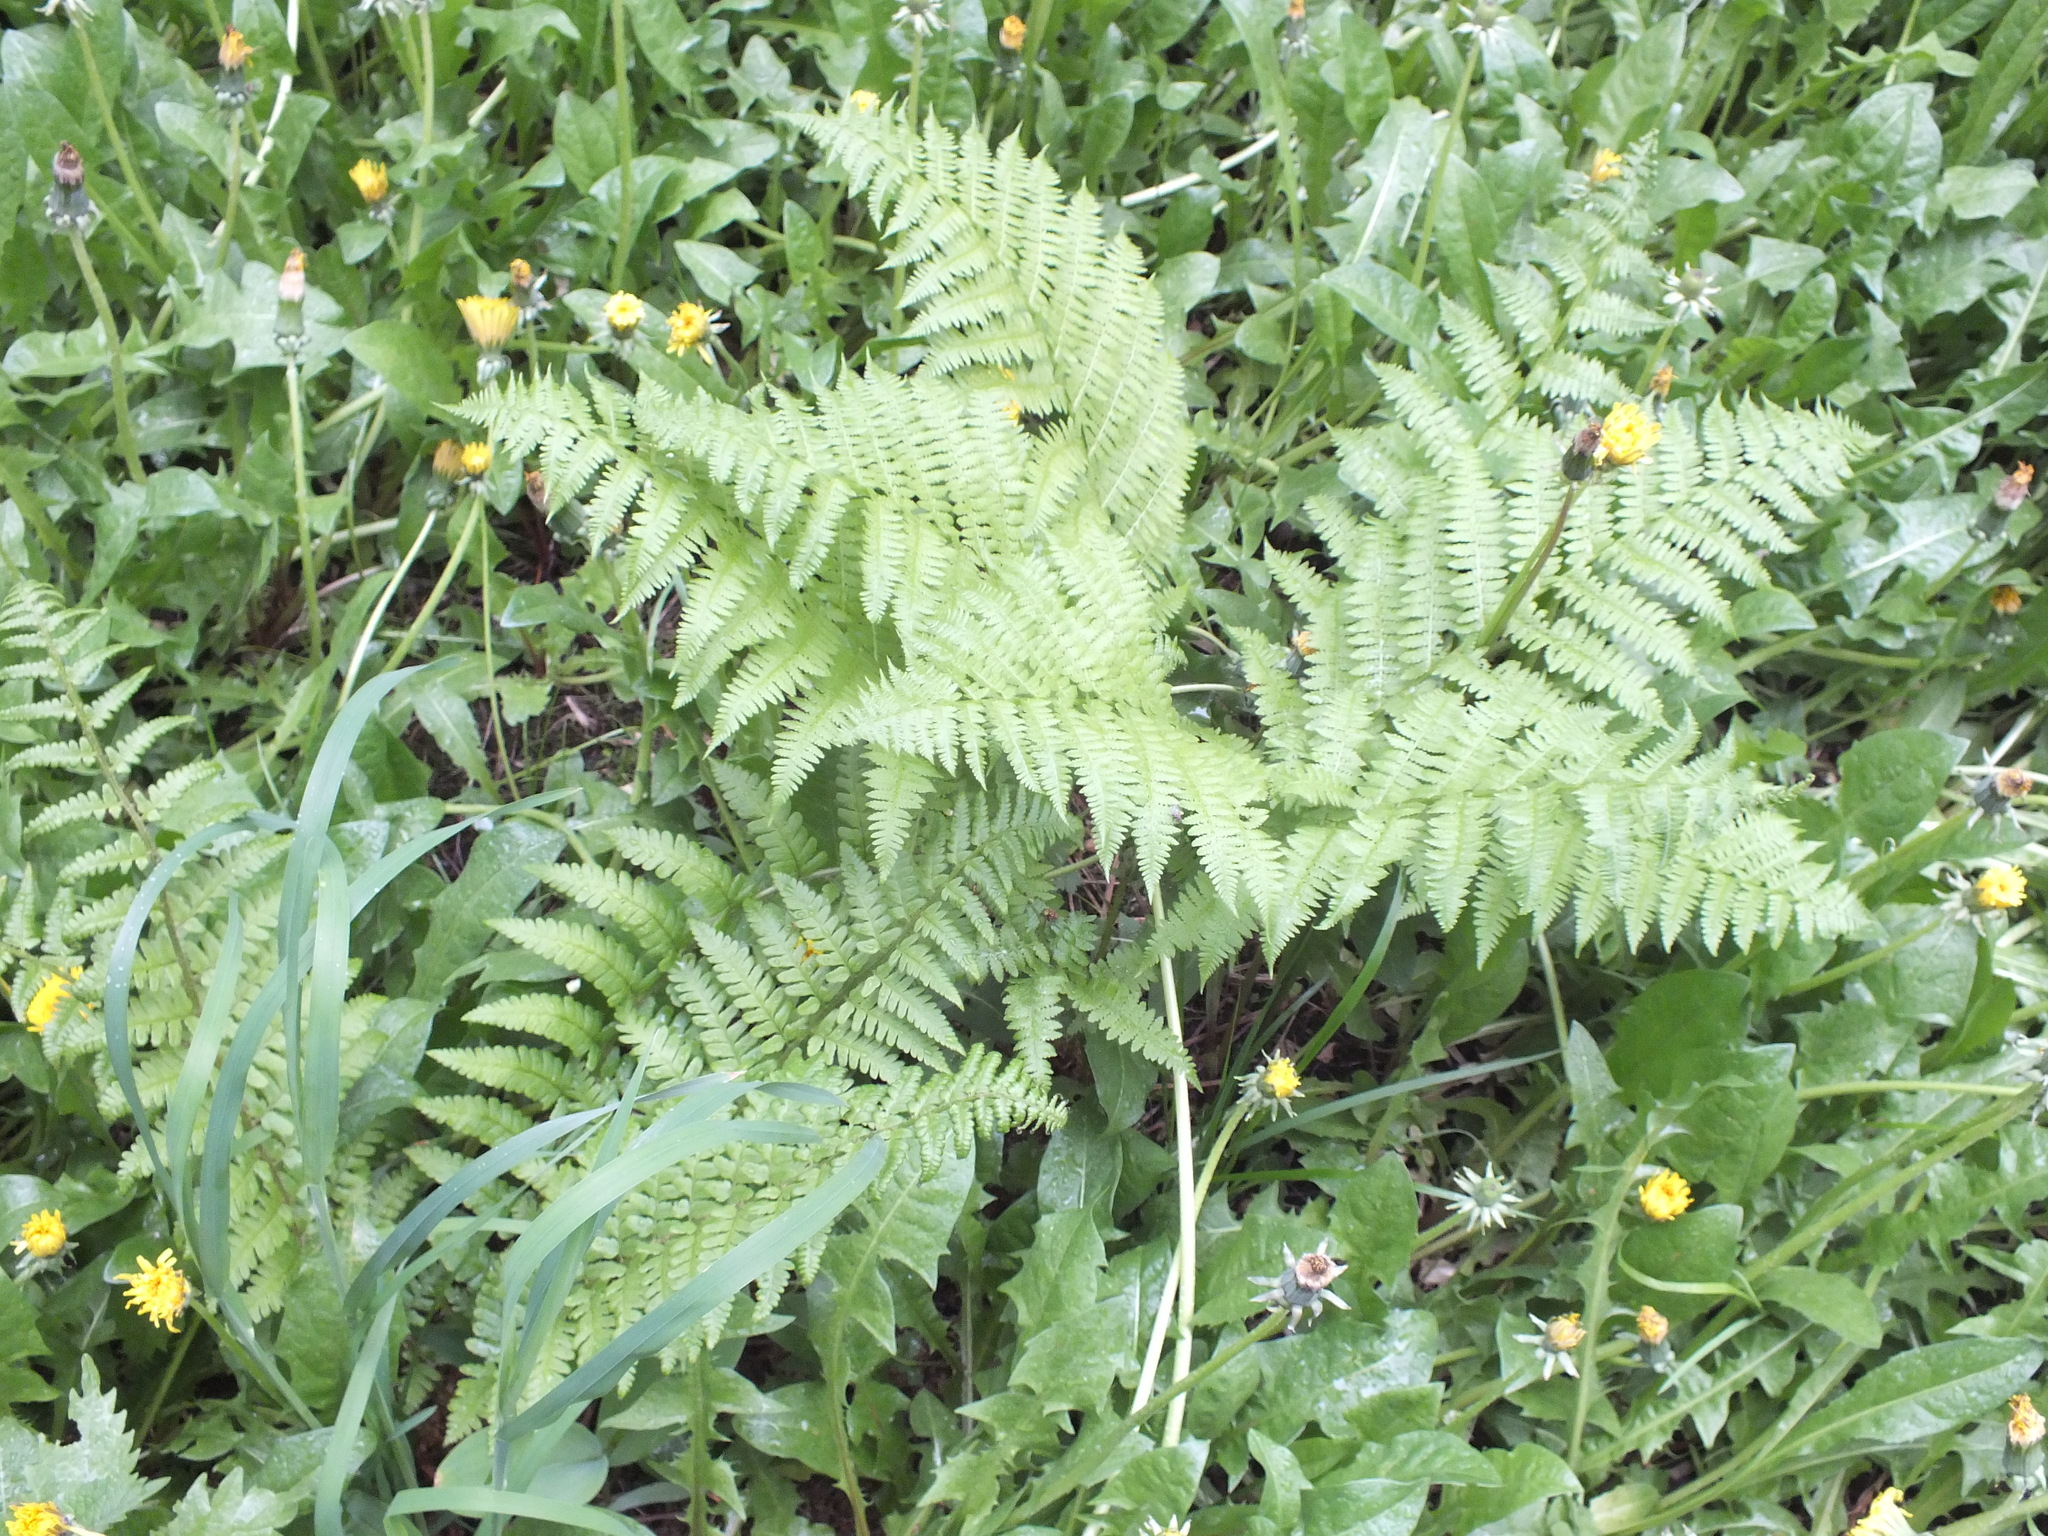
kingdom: Plantae
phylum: Tracheophyta
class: Polypodiopsida
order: Polypodiales
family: Dryopteridaceae
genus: Dryopteris
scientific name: Dryopteris filix-mas
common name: Male fern
